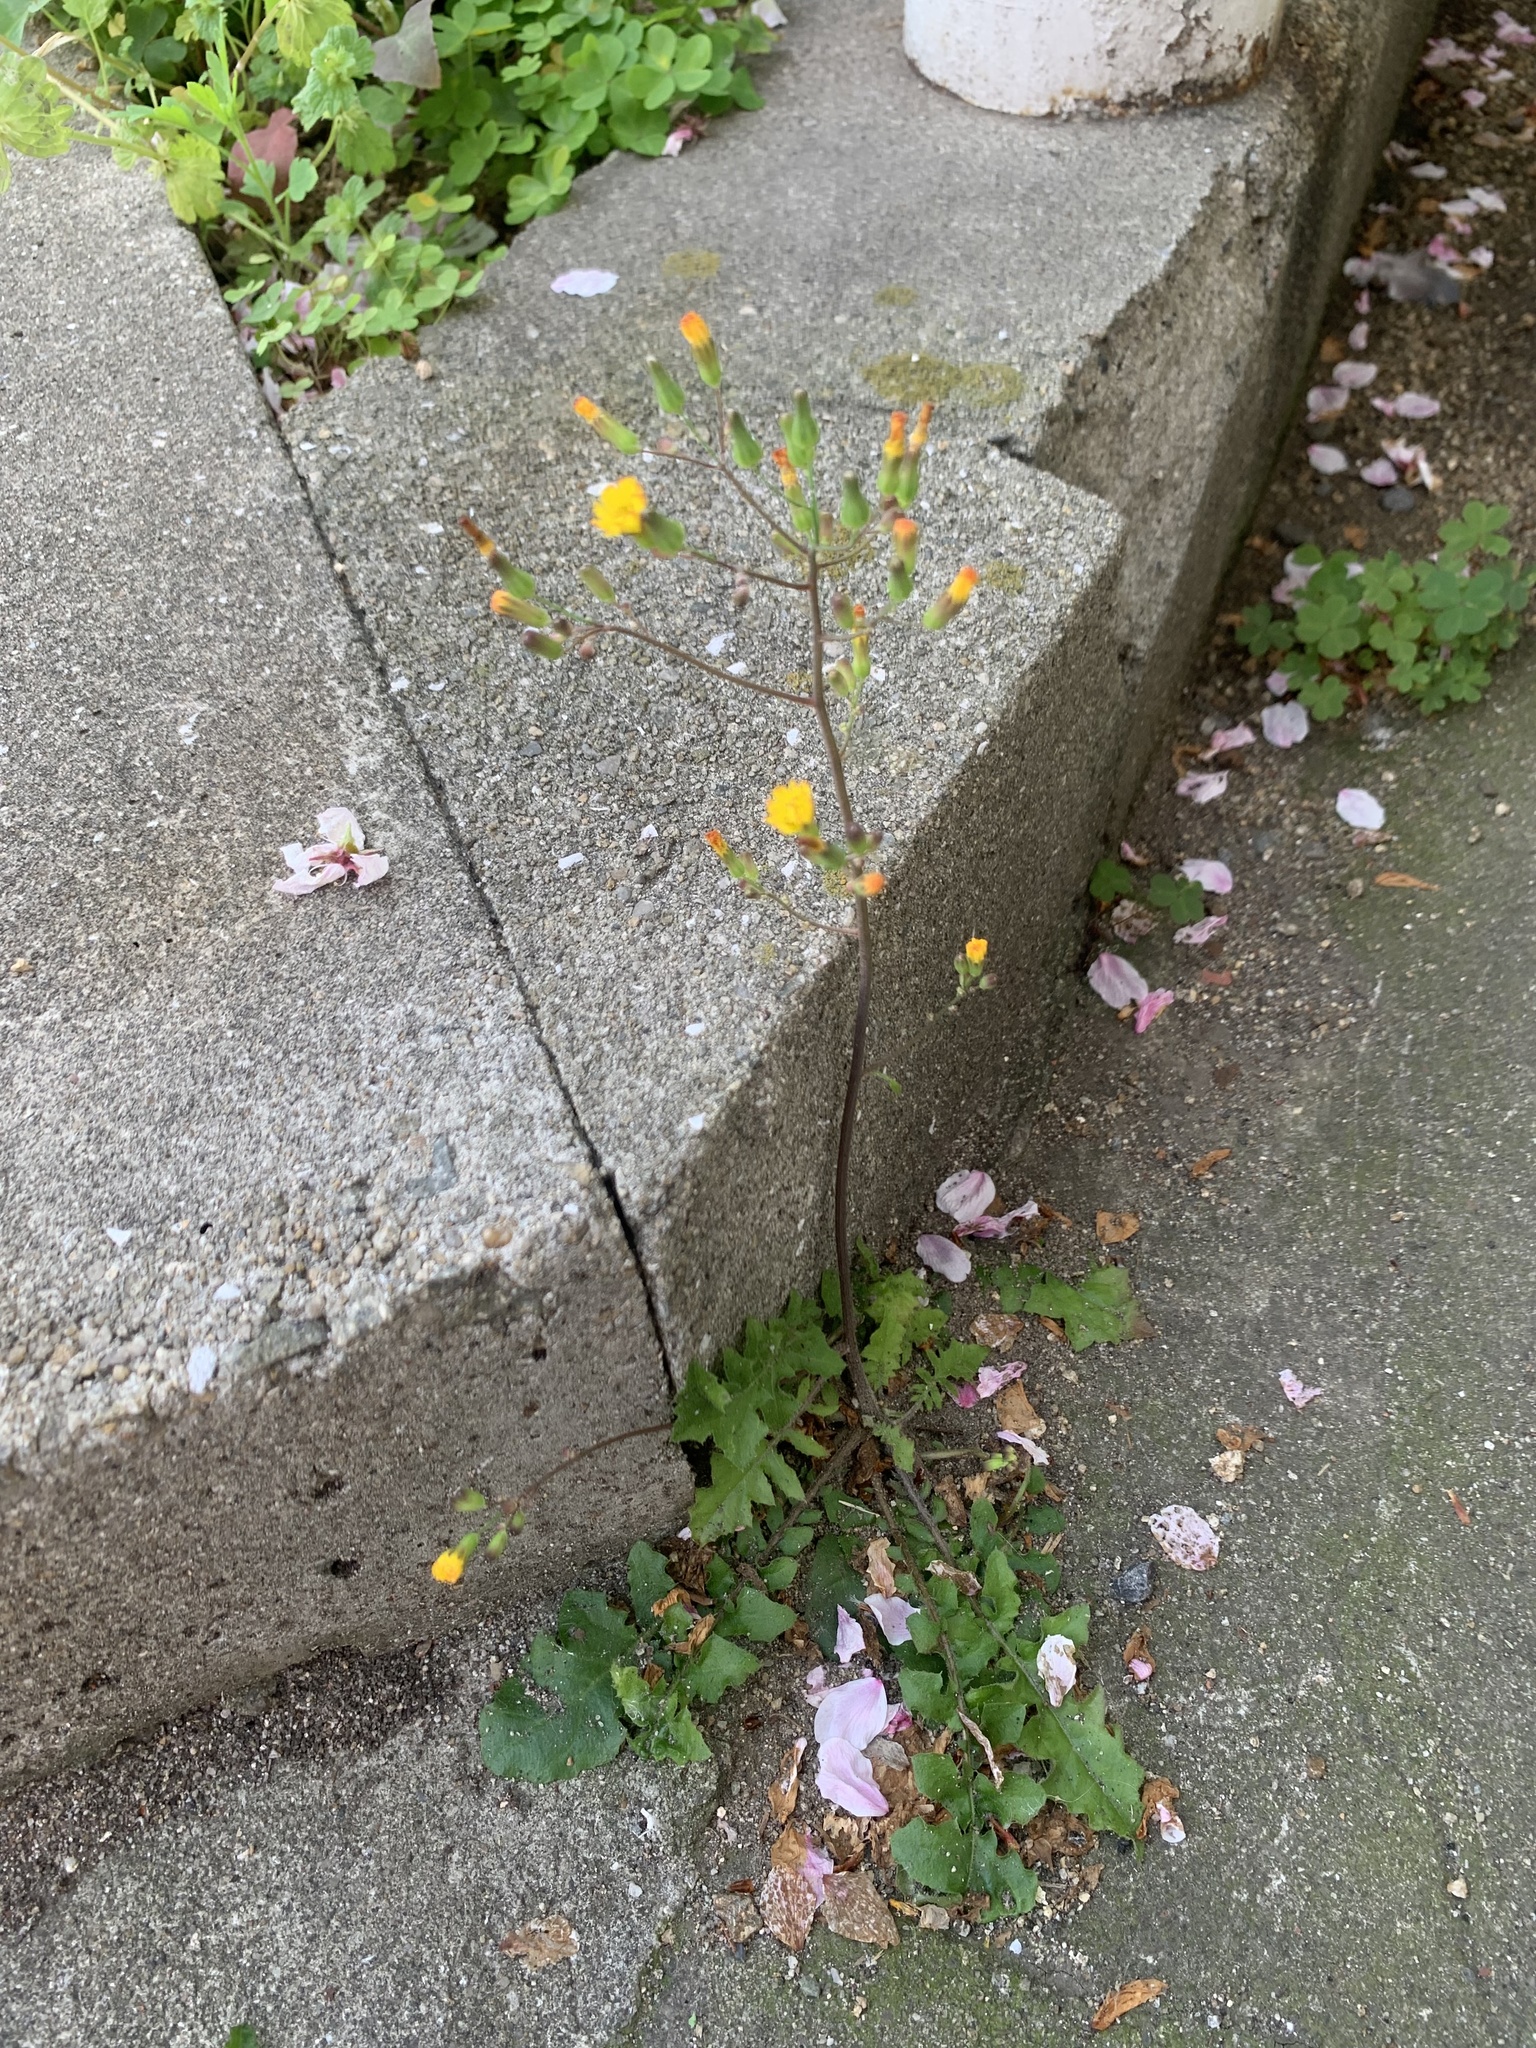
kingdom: Plantae
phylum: Tracheophyta
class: Magnoliopsida
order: Asterales
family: Asteraceae
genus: Youngia
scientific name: Youngia japonica
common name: Oriental false hawksbeard
